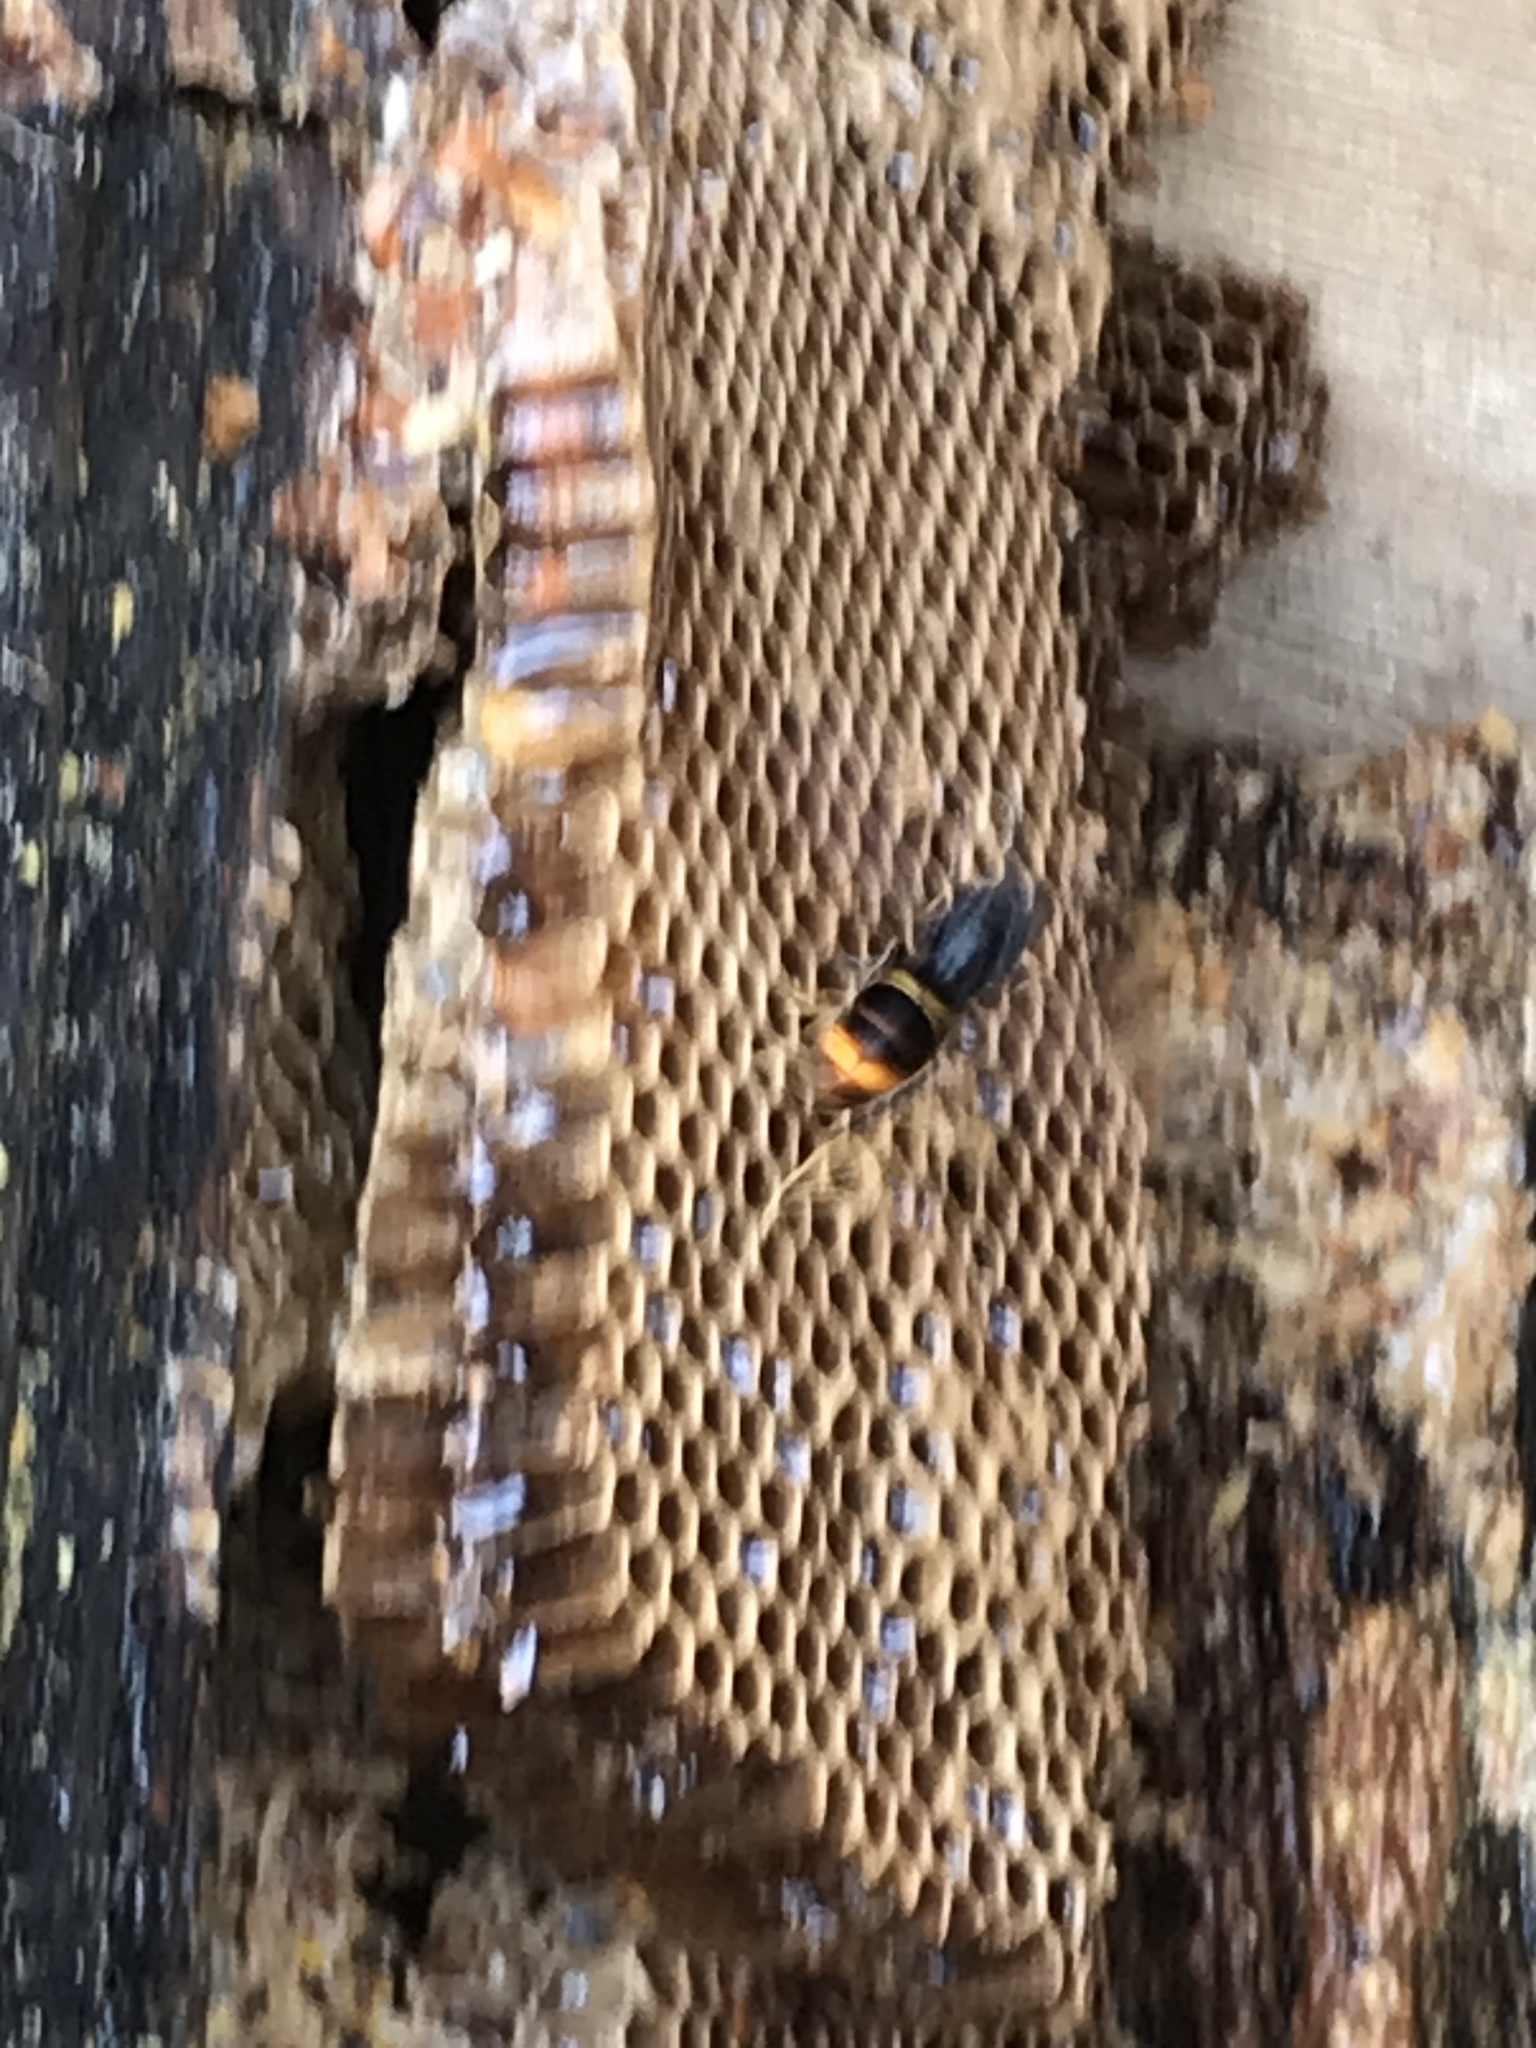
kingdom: Animalia
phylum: Arthropoda
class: Insecta
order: Hymenoptera
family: Vespidae
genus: Vespa
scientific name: Vespa velutina
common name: Asian hornet
